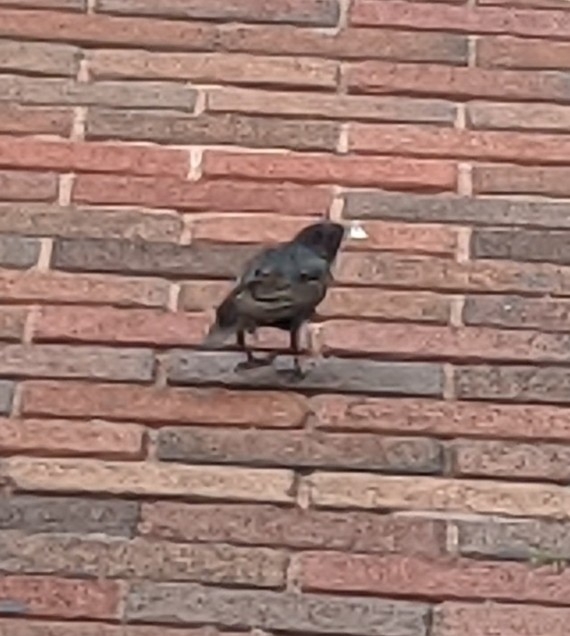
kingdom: Animalia
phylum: Chordata
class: Aves
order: Passeriformes
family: Sturnidae
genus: Sturnus
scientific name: Sturnus vulgaris
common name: Common starling
